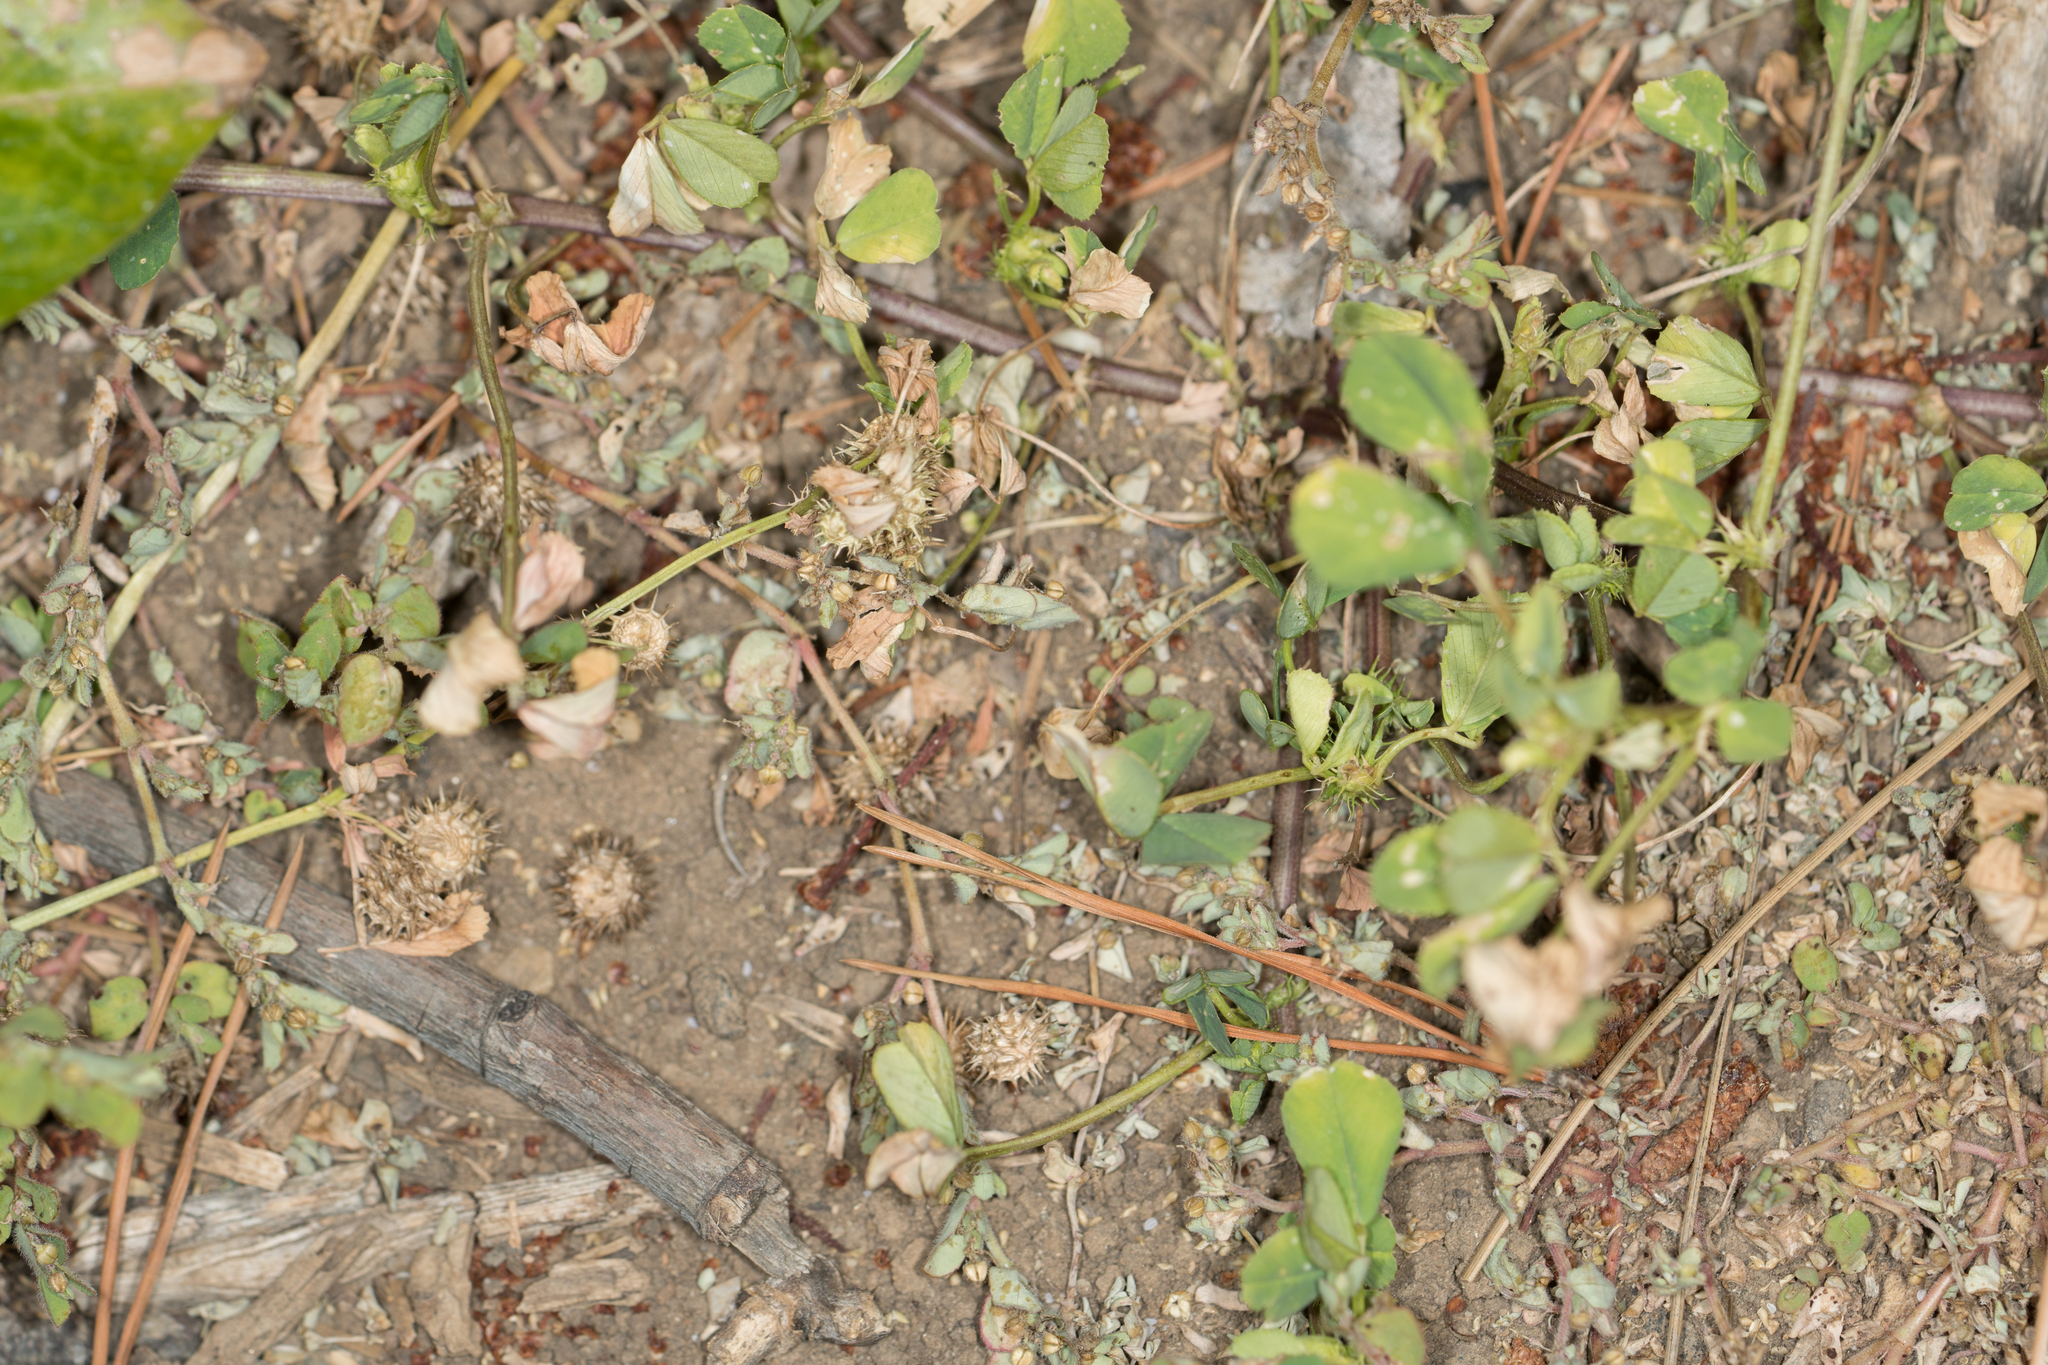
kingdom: Plantae
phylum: Tracheophyta
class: Magnoliopsida
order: Fabales
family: Fabaceae
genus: Medicago
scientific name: Medicago polymorpha
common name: Burclover
